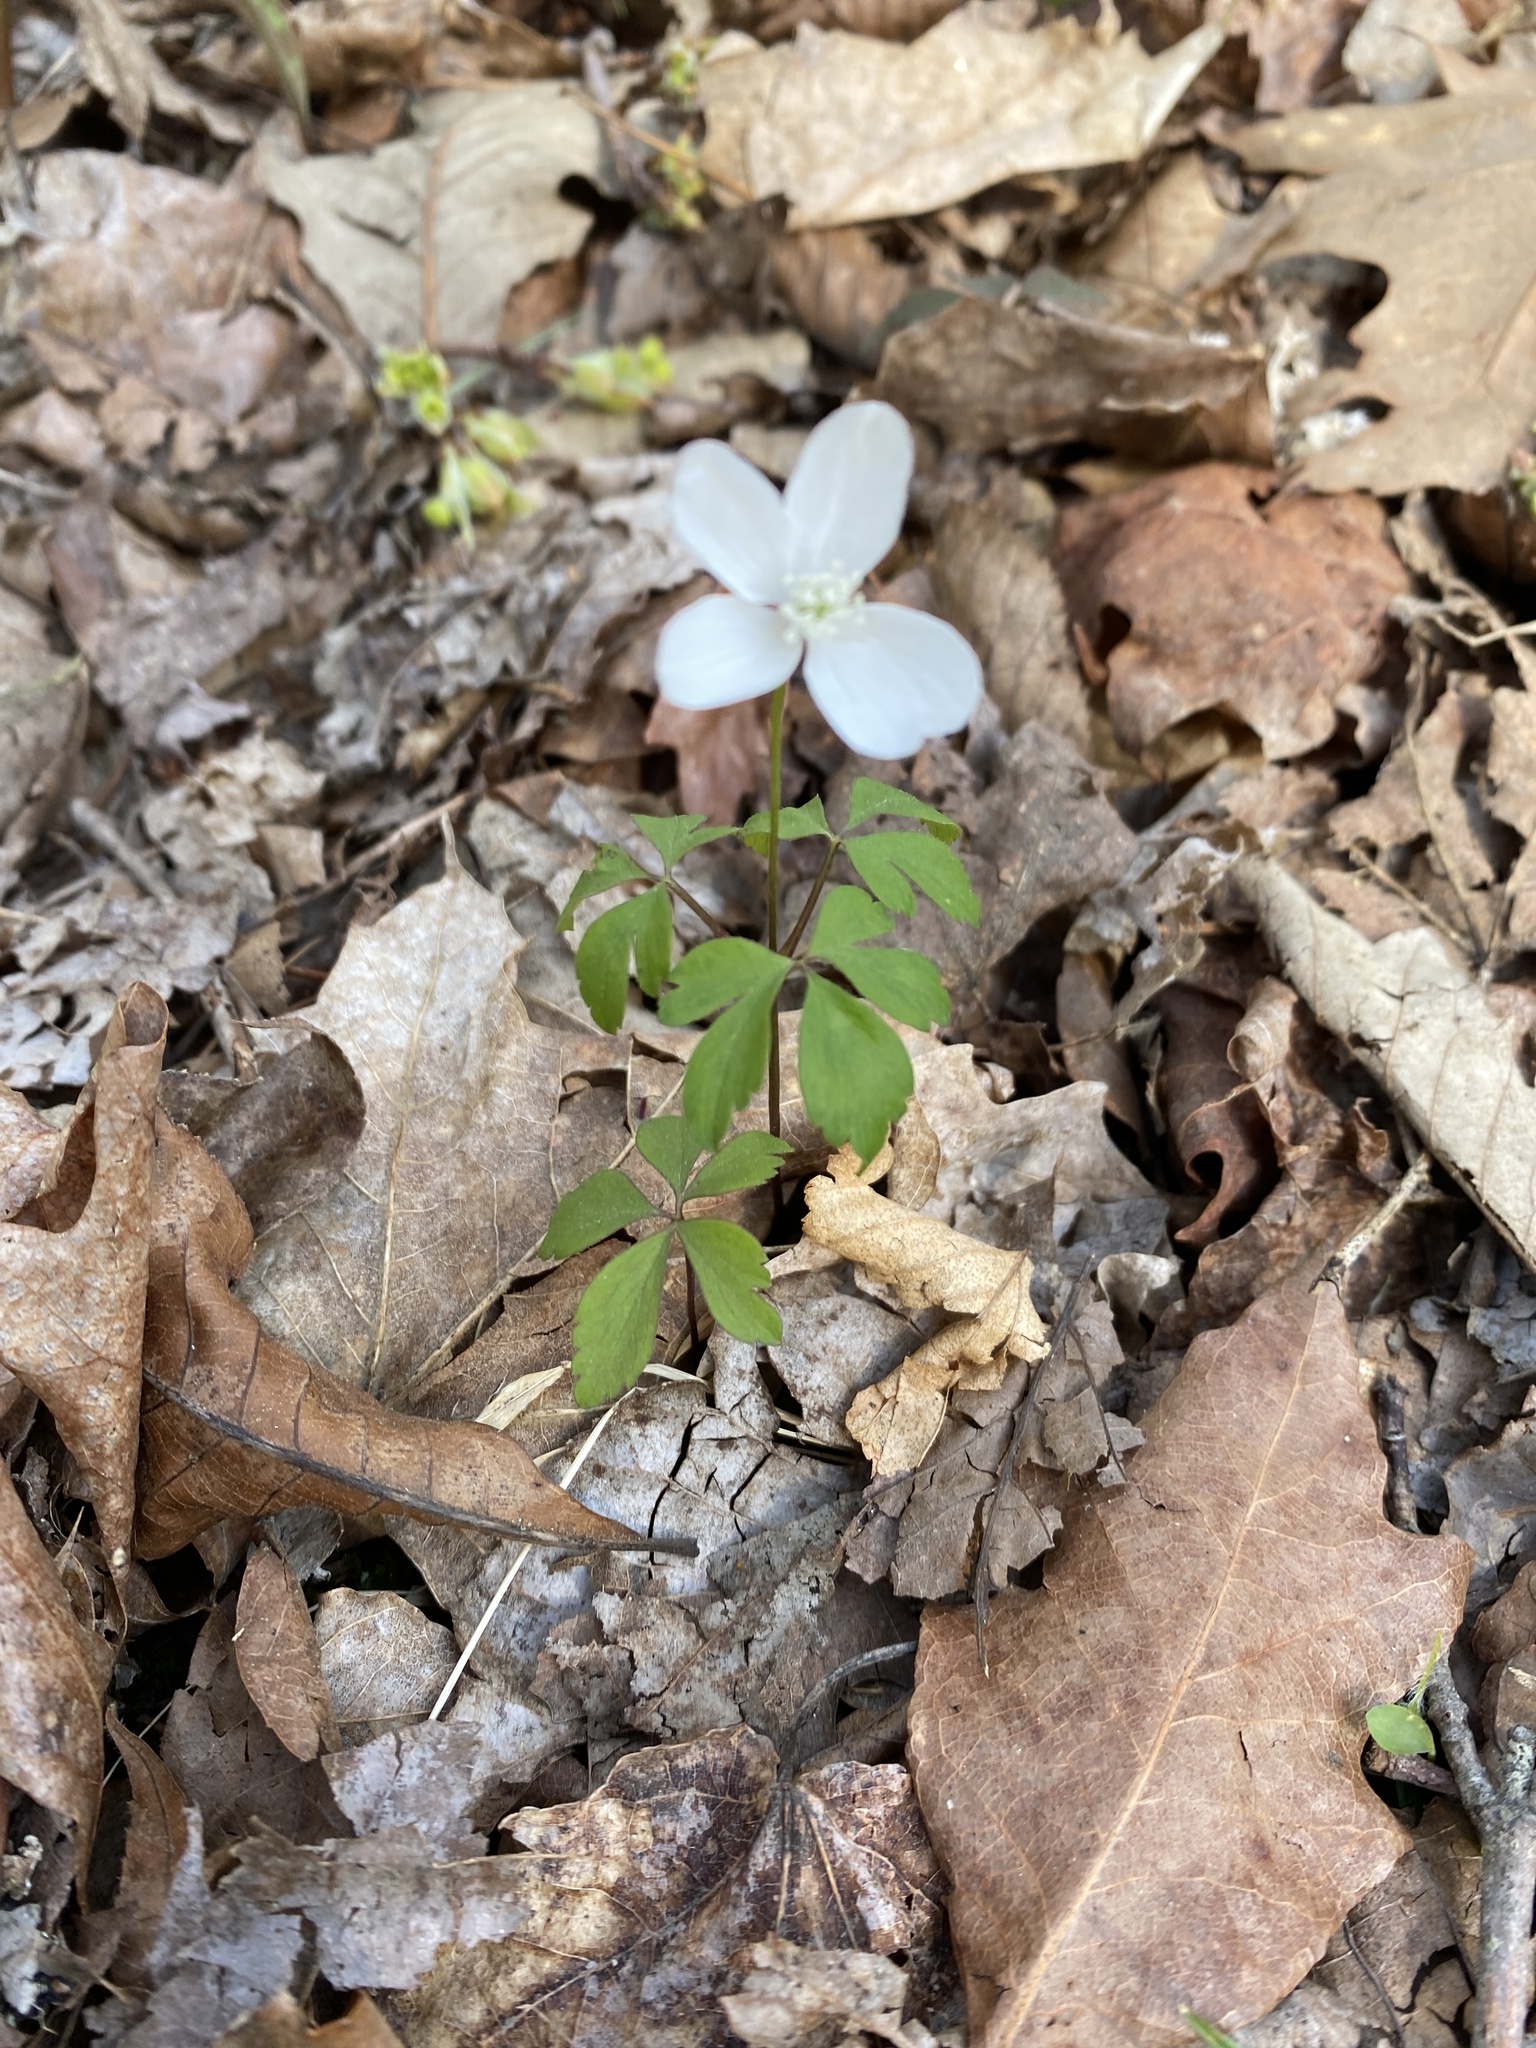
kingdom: Plantae
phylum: Tracheophyta
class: Magnoliopsida
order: Ranunculales
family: Ranunculaceae
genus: Anemone
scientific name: Anemone quinquefolia
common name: Wood anemone
